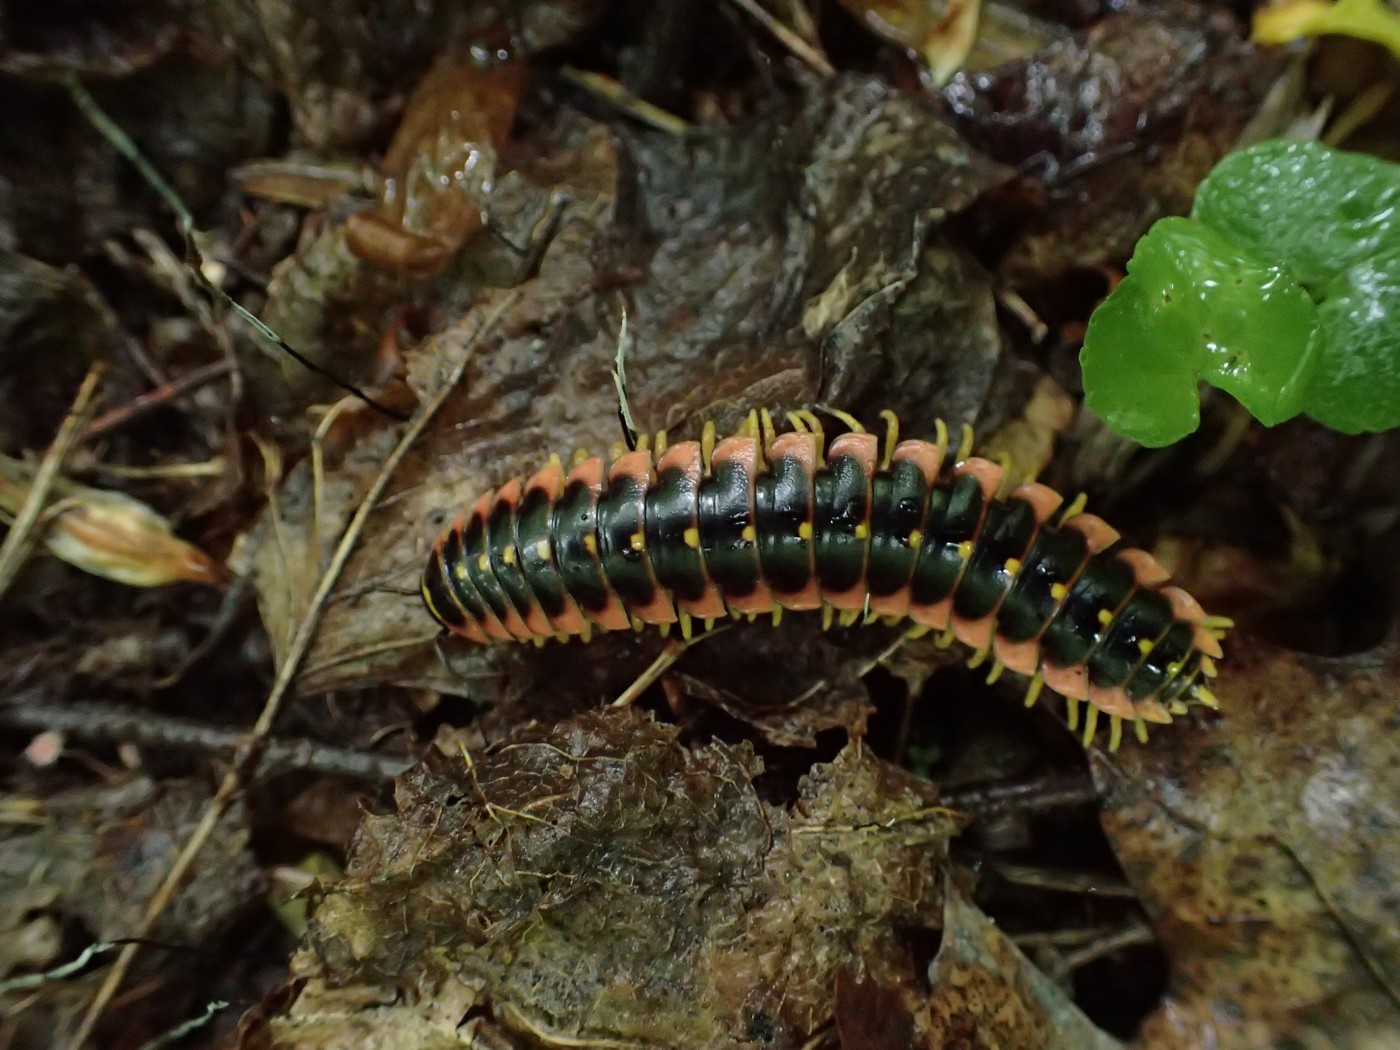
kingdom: Animalia
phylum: Arthropoda
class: Diplopoda
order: Polydesmida
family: Xystodesmidae
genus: Apheloria
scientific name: Apheloria virginiensis
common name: Black-and-gold flat millipede
